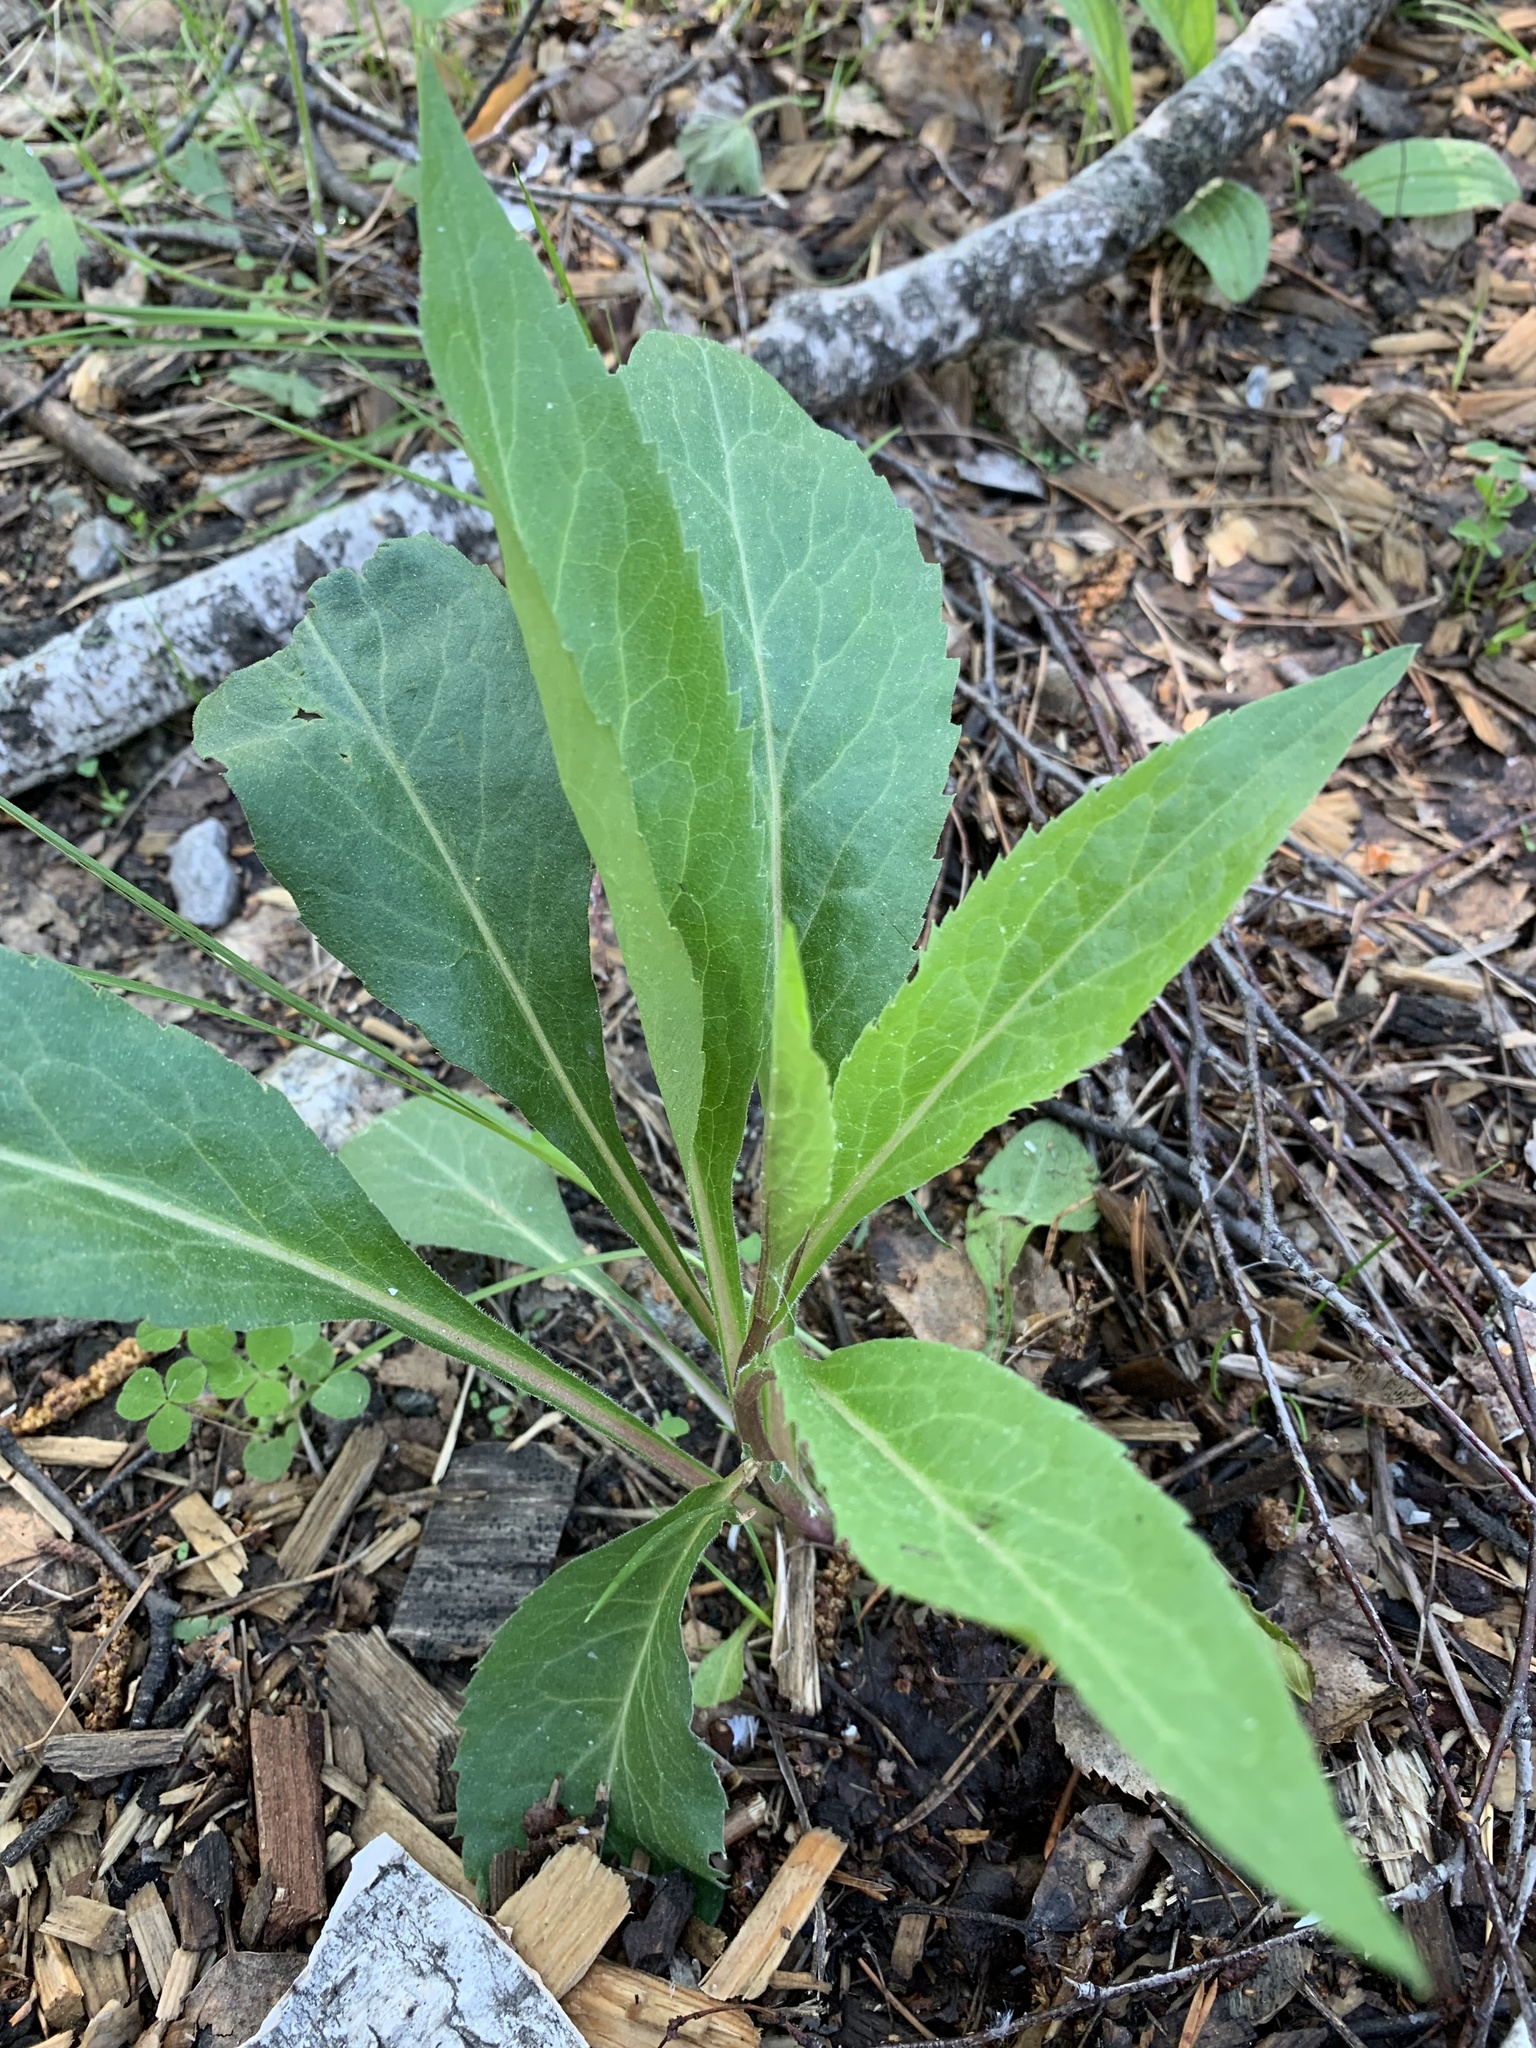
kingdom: Plantae
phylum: Tracheophyta
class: Magnoliopsida
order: Asterales
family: Asteraceae
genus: Solidago
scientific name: Solidago virgaurea
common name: Goldenrod
